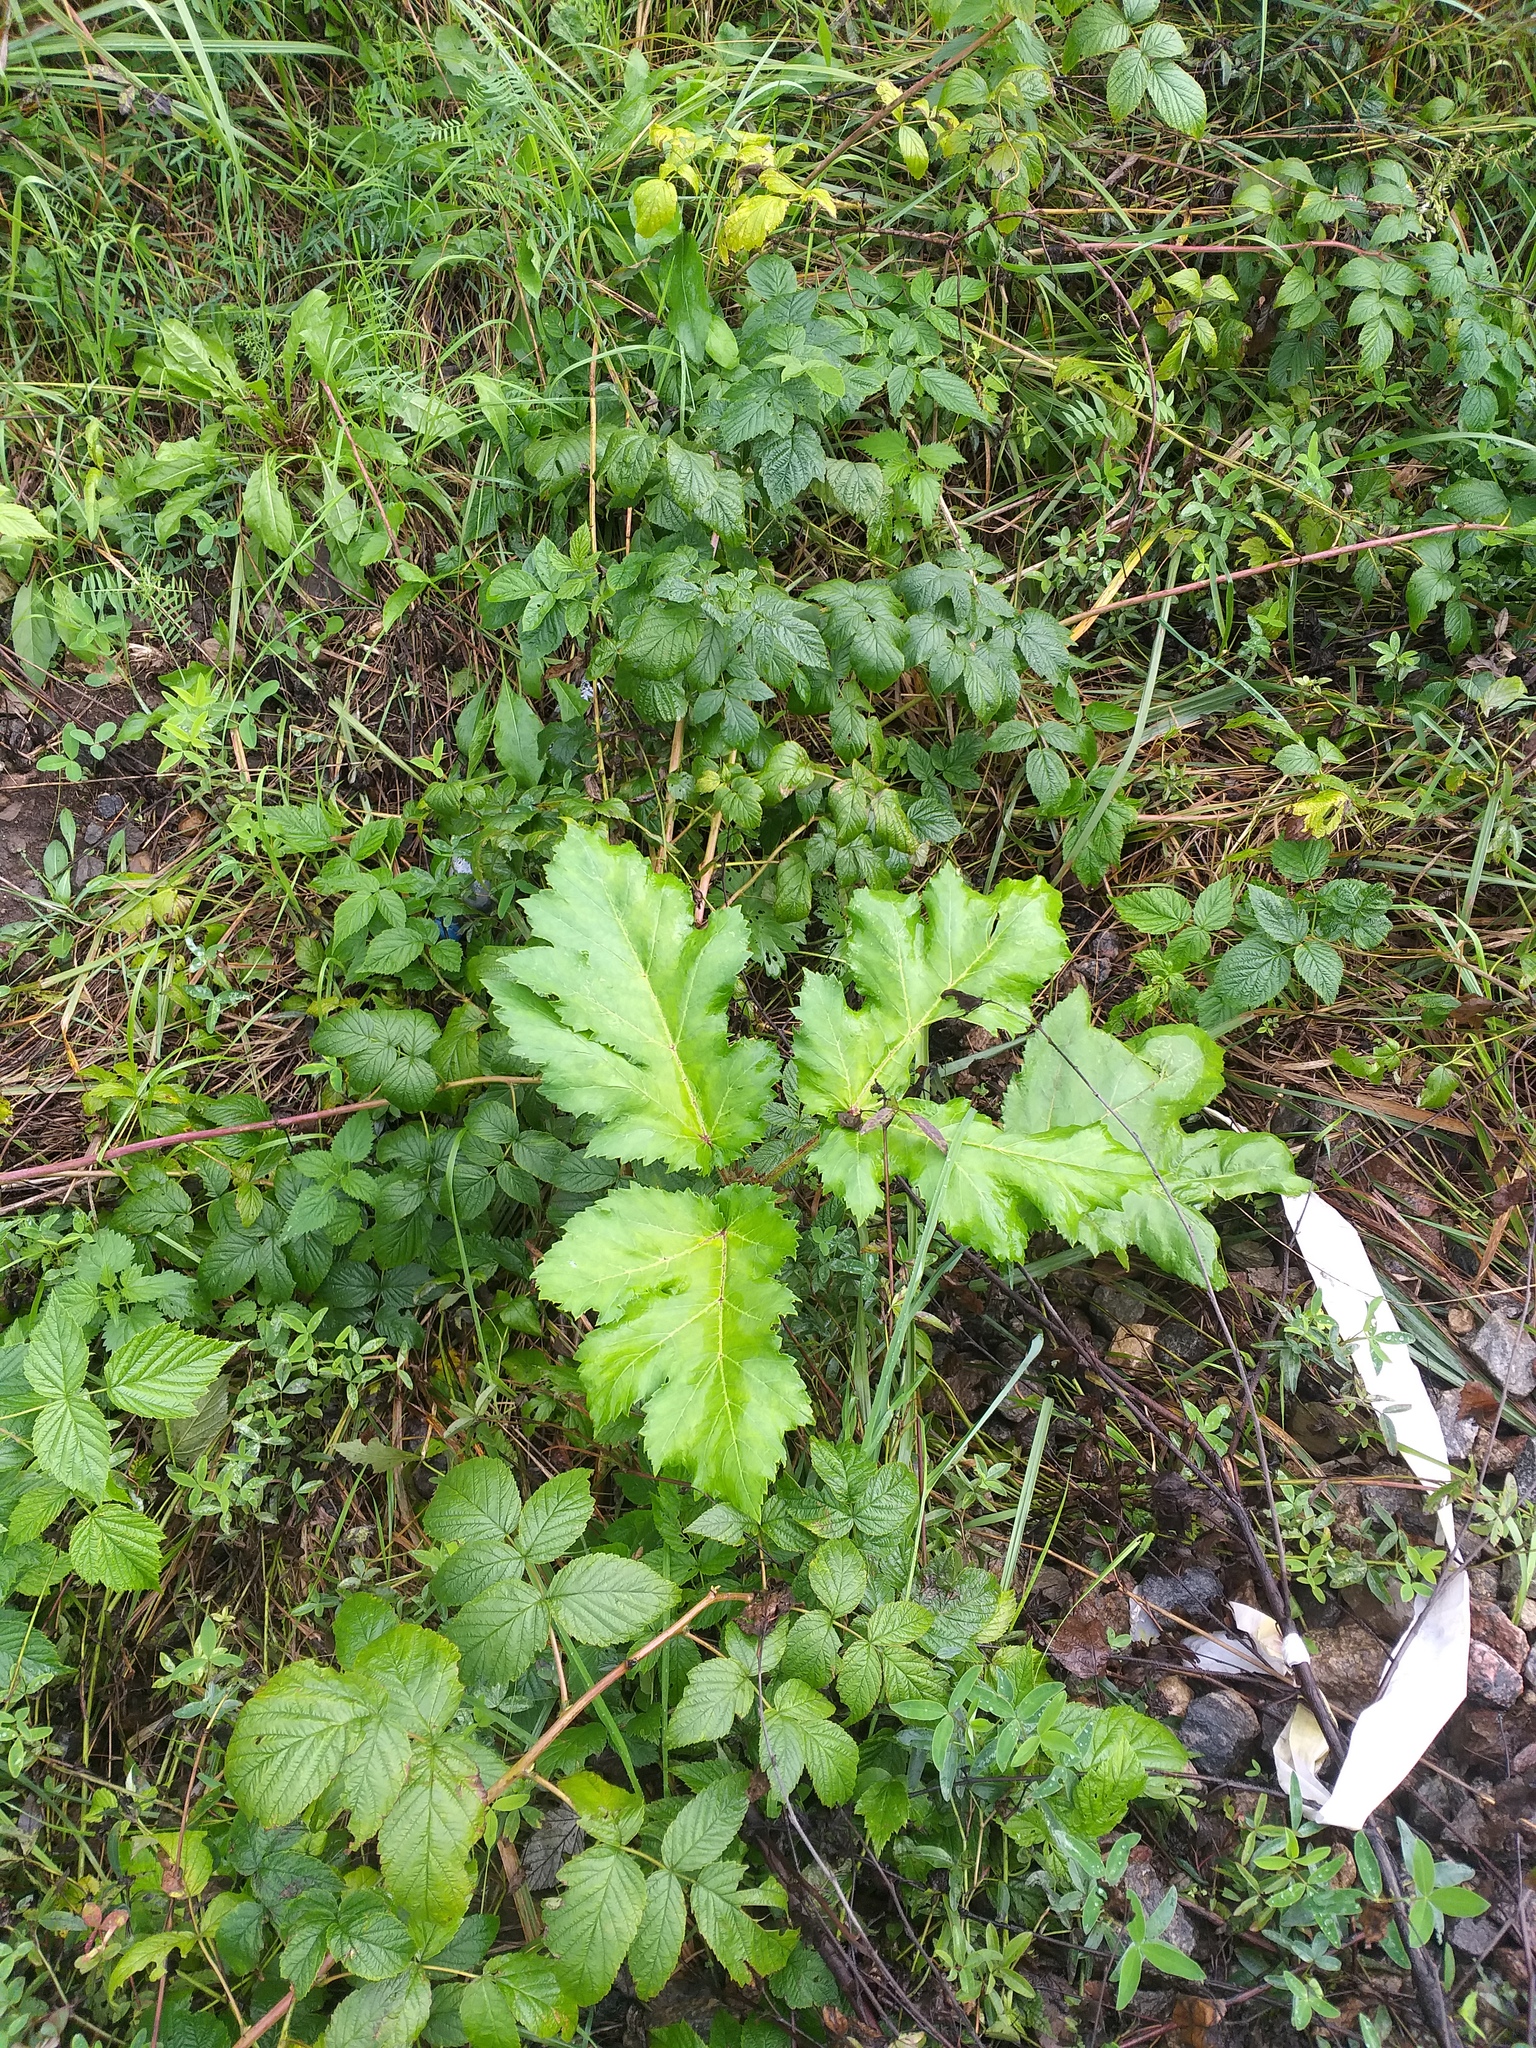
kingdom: Plantae
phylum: Tracheophyta
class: Magnoliopsida
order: Apiales
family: Apiaceae
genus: Heracleum
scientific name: Heracleum sosnowskyi
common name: Sosnowsky's hogweed
